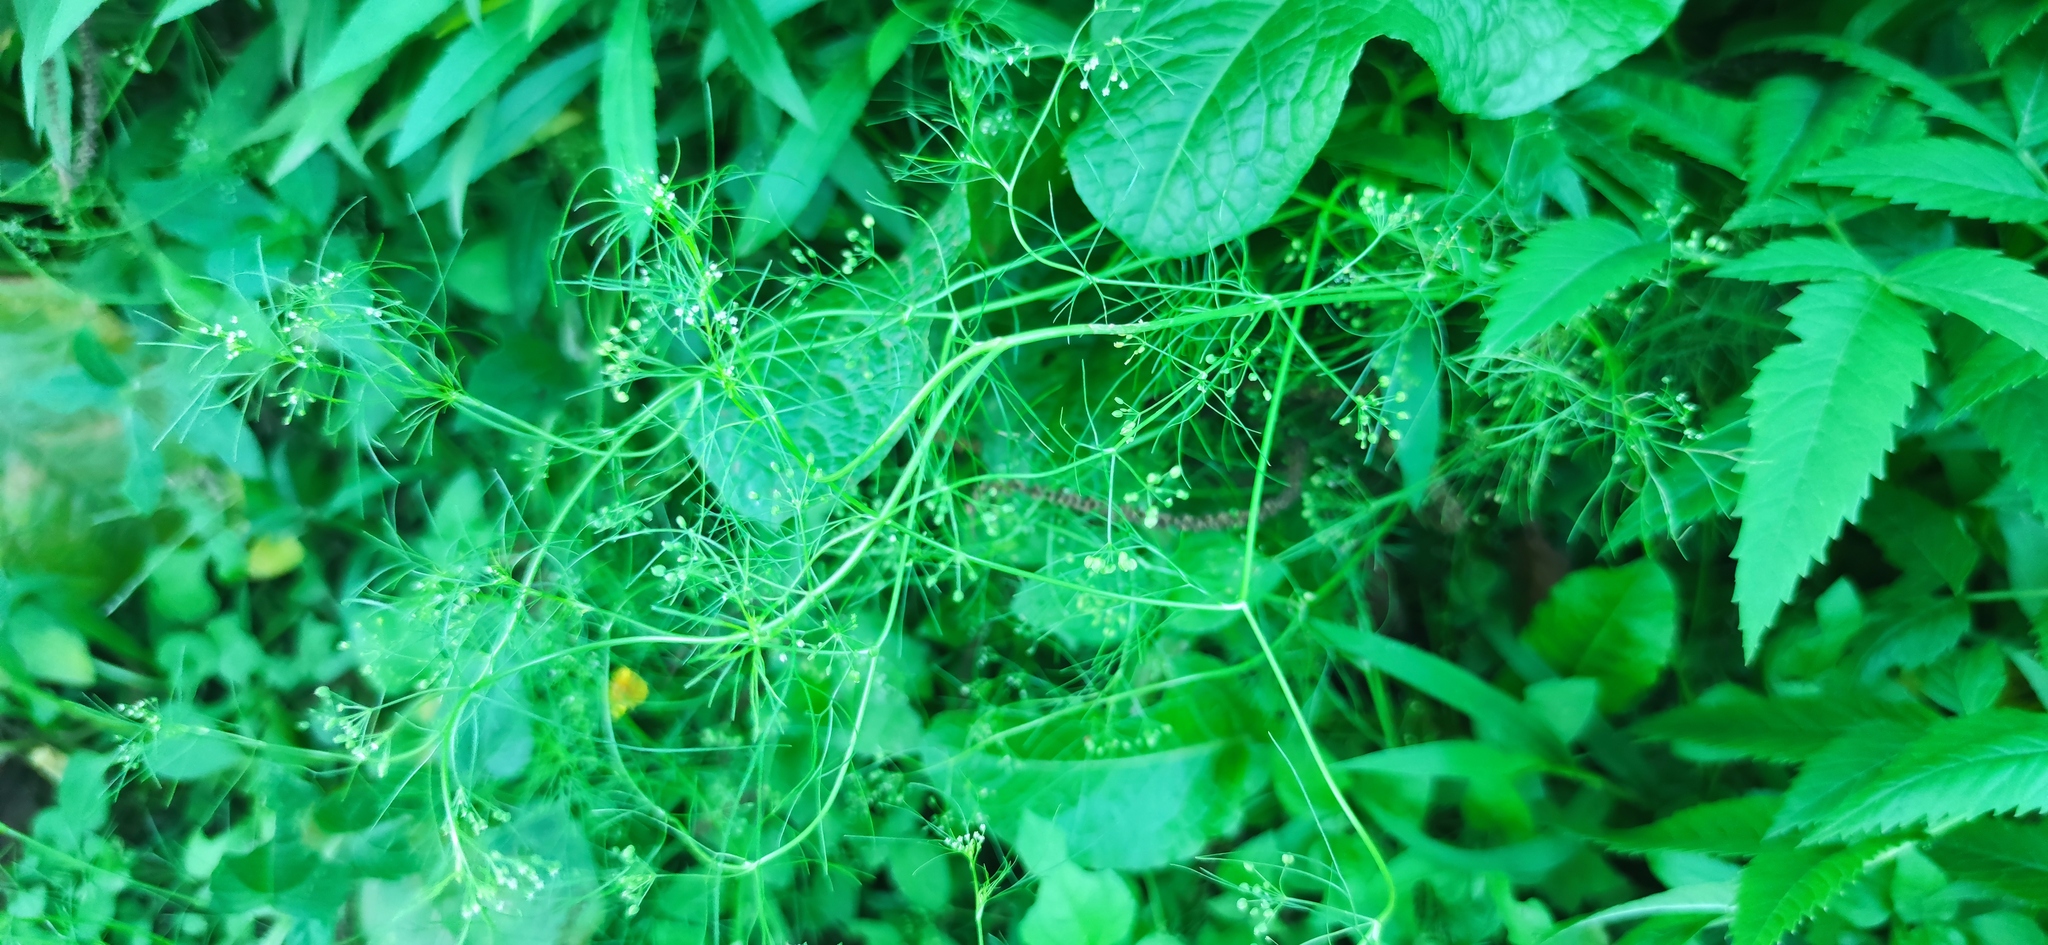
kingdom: Plantae
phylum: Tracheophyta
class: Magnoliopsida
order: Apiales
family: Apiaceae
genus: Cyclospermum
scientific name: Cyclospermum leptophyllum
